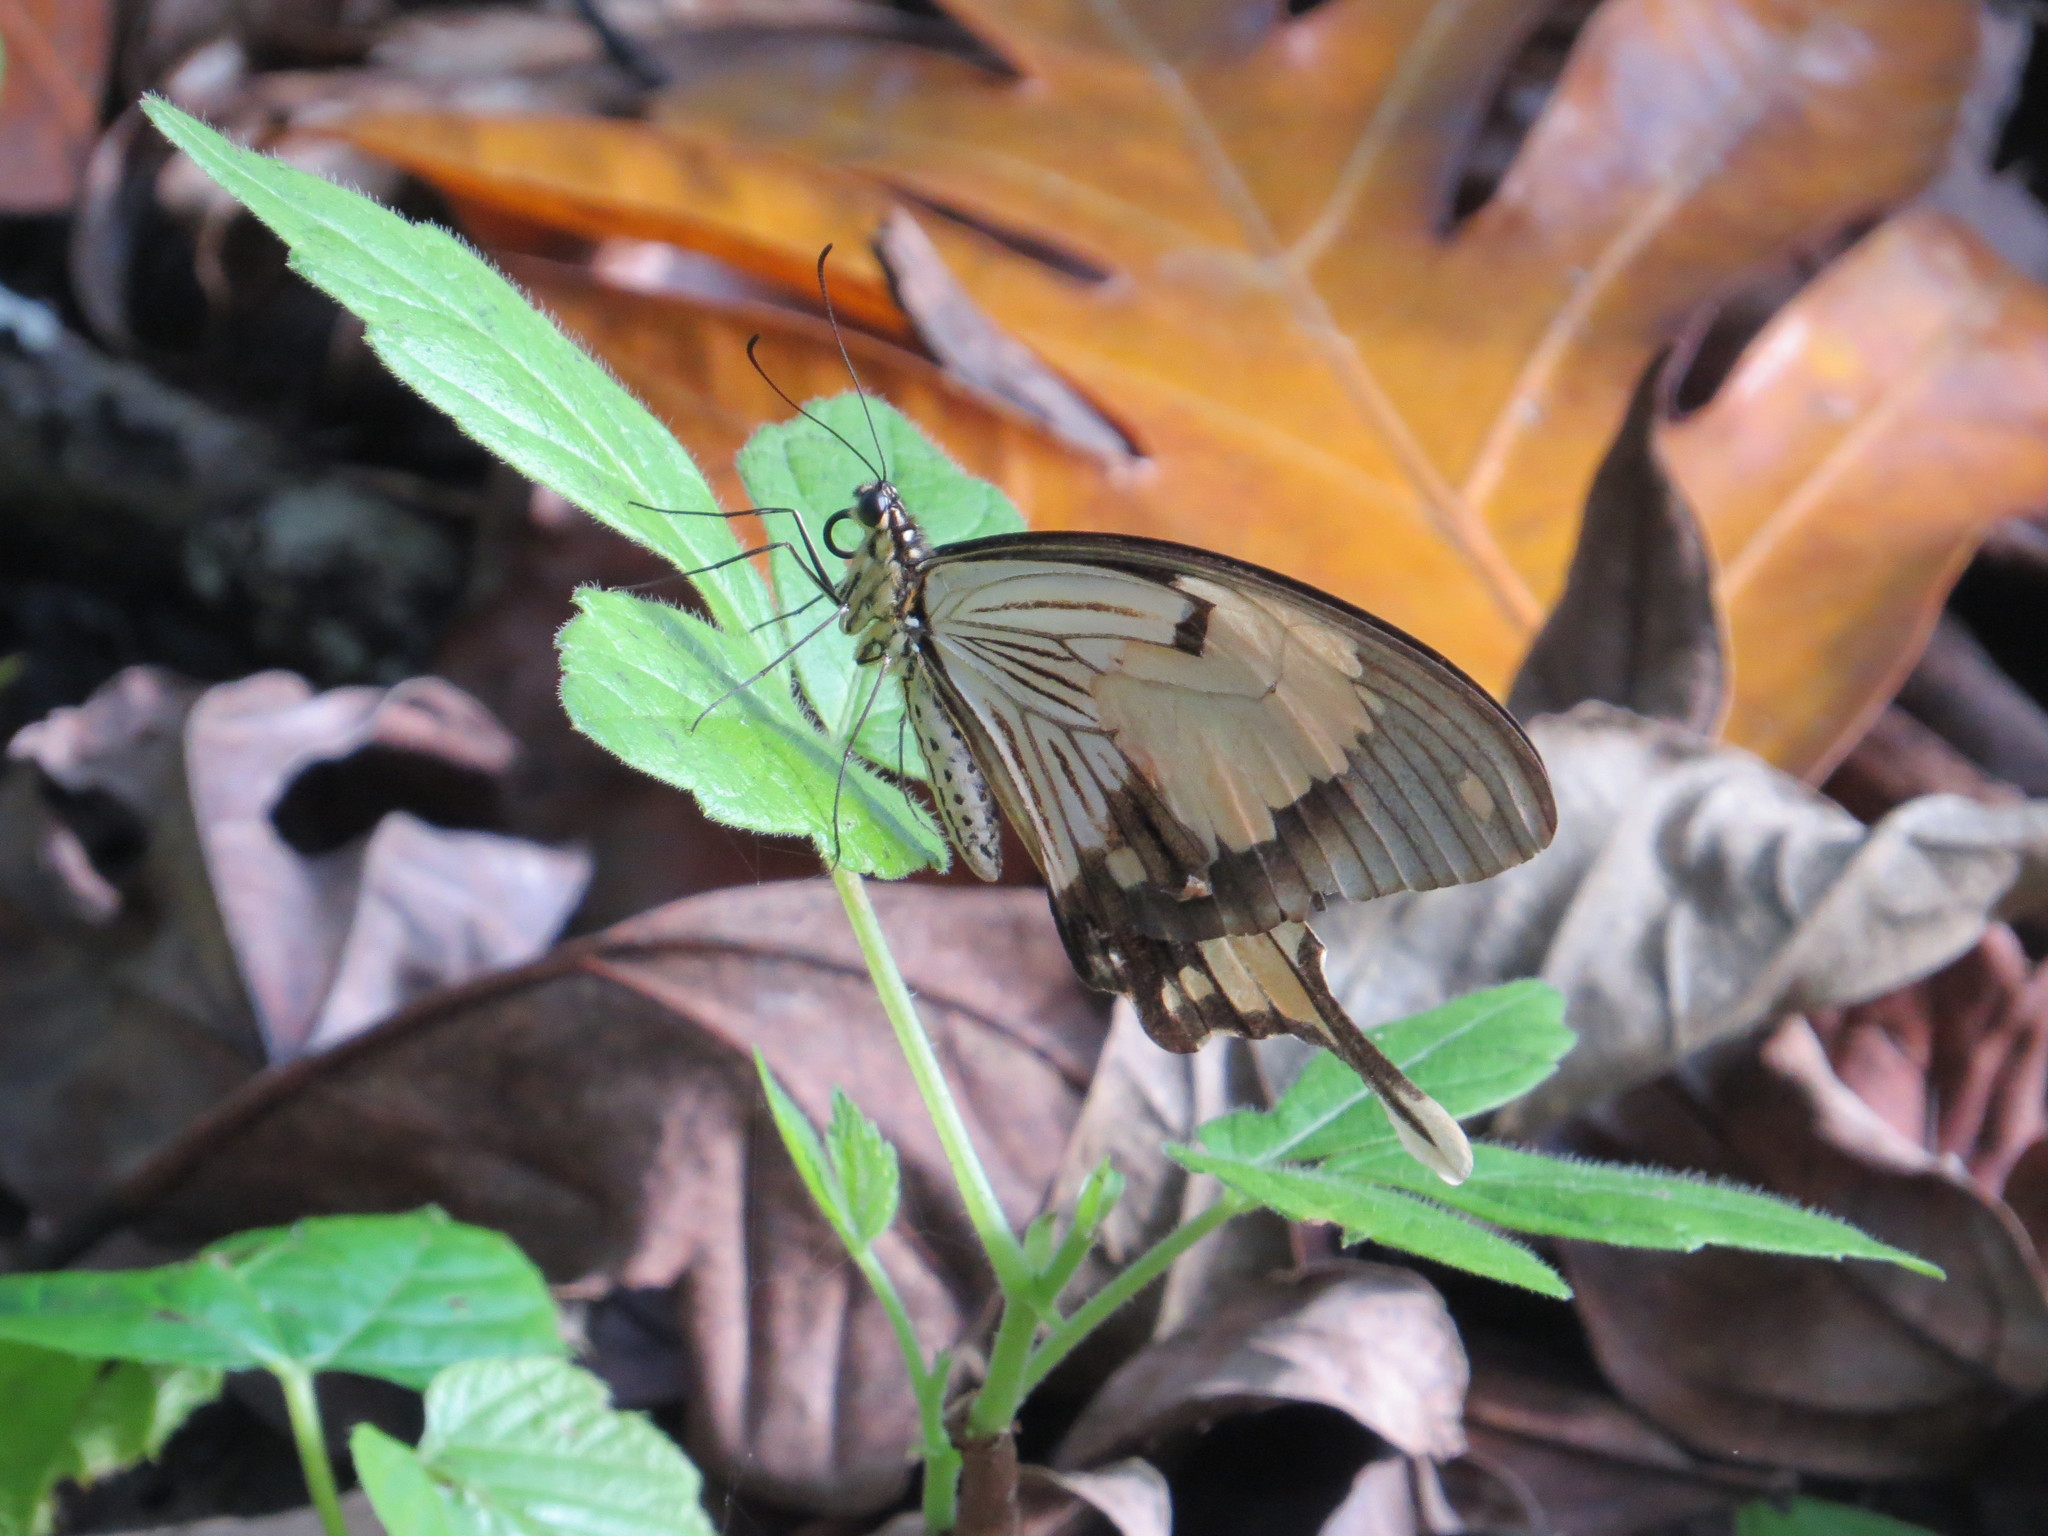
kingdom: Animalia
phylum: Arthropoda
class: Insecta
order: Lepidoptera
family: Papilionidae
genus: Papilio
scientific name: Papilio dardanus
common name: Flying handkerchief
